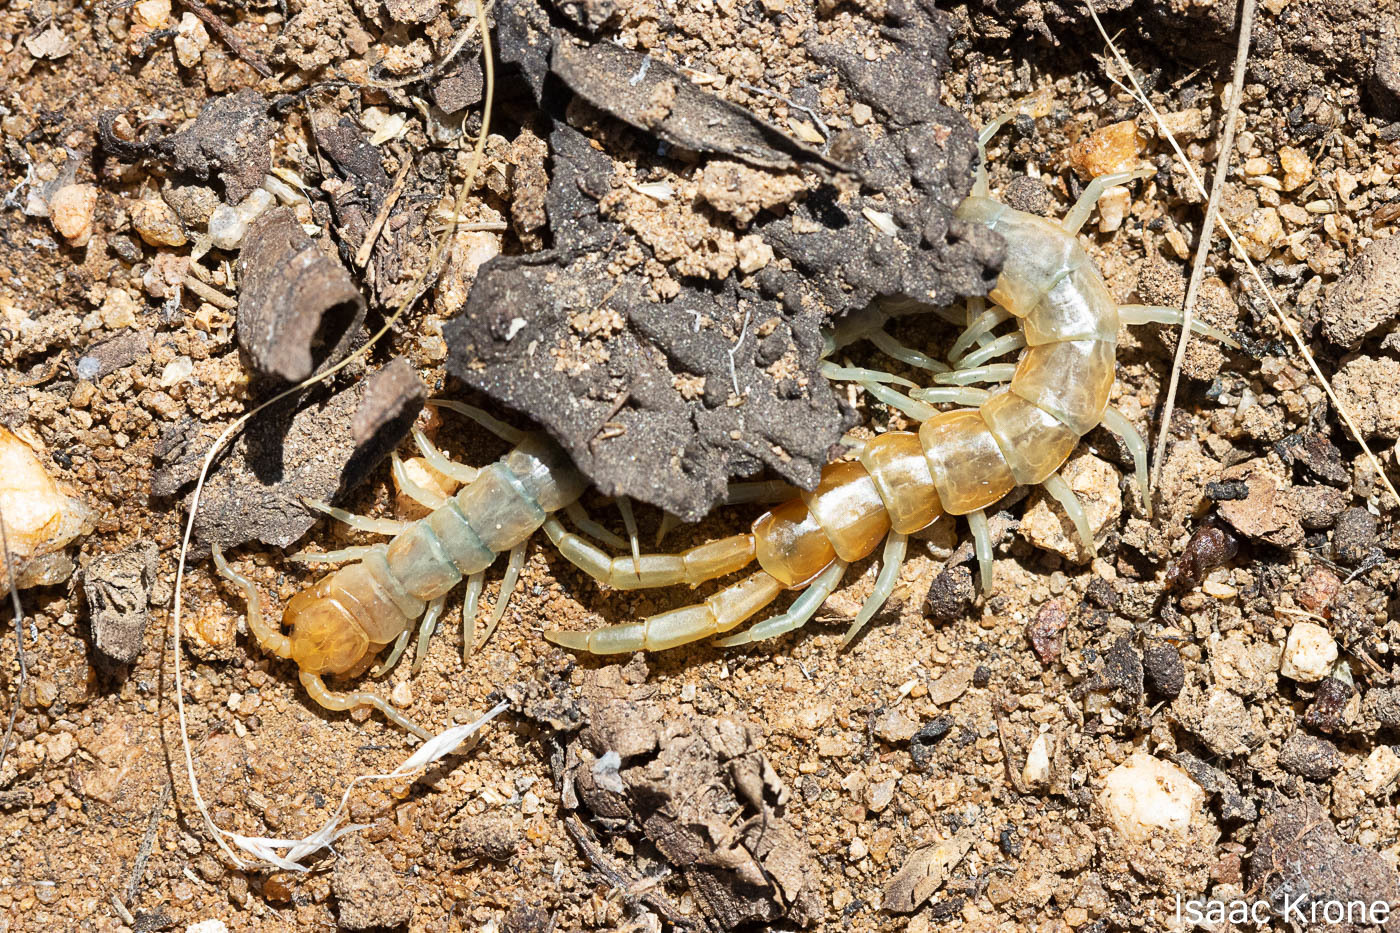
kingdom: Animalia
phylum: Arthropoda
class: Chilopoda
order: Scolopendromorpha
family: Scolopendridae
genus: Scolopendra
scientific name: Scolopendra polymorpha
